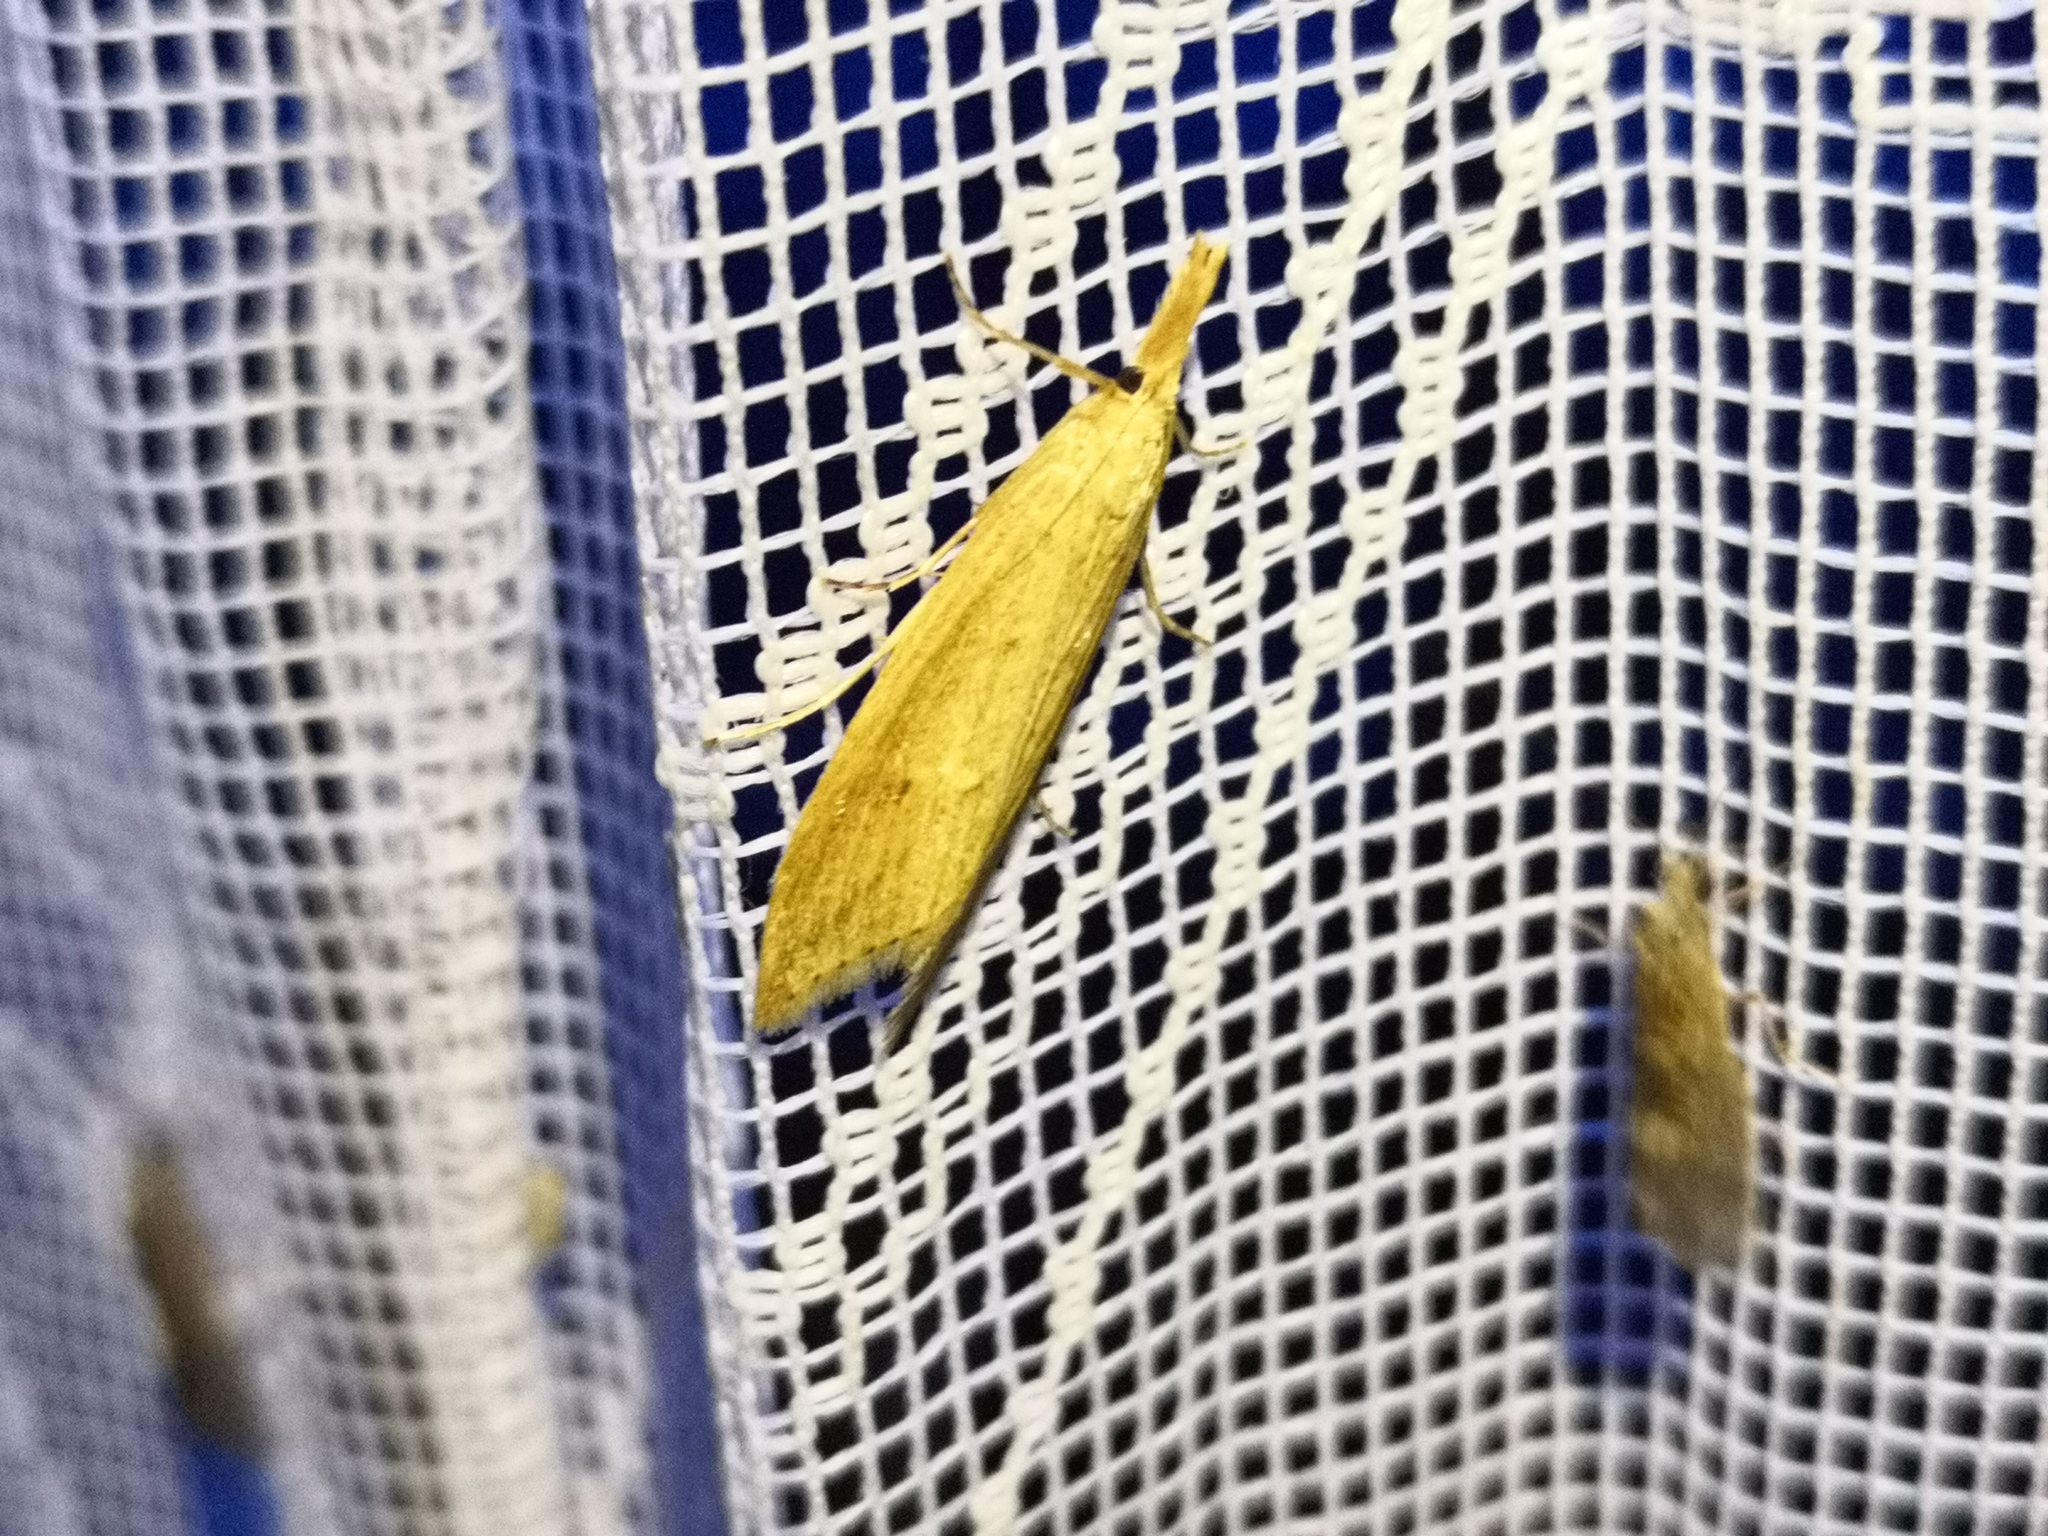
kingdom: Animalia
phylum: Arthropoda
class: Insecta
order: Lepidoptera
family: Crambidae
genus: Donacaula
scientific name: Donacaula forficella
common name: Pale water-veneer
